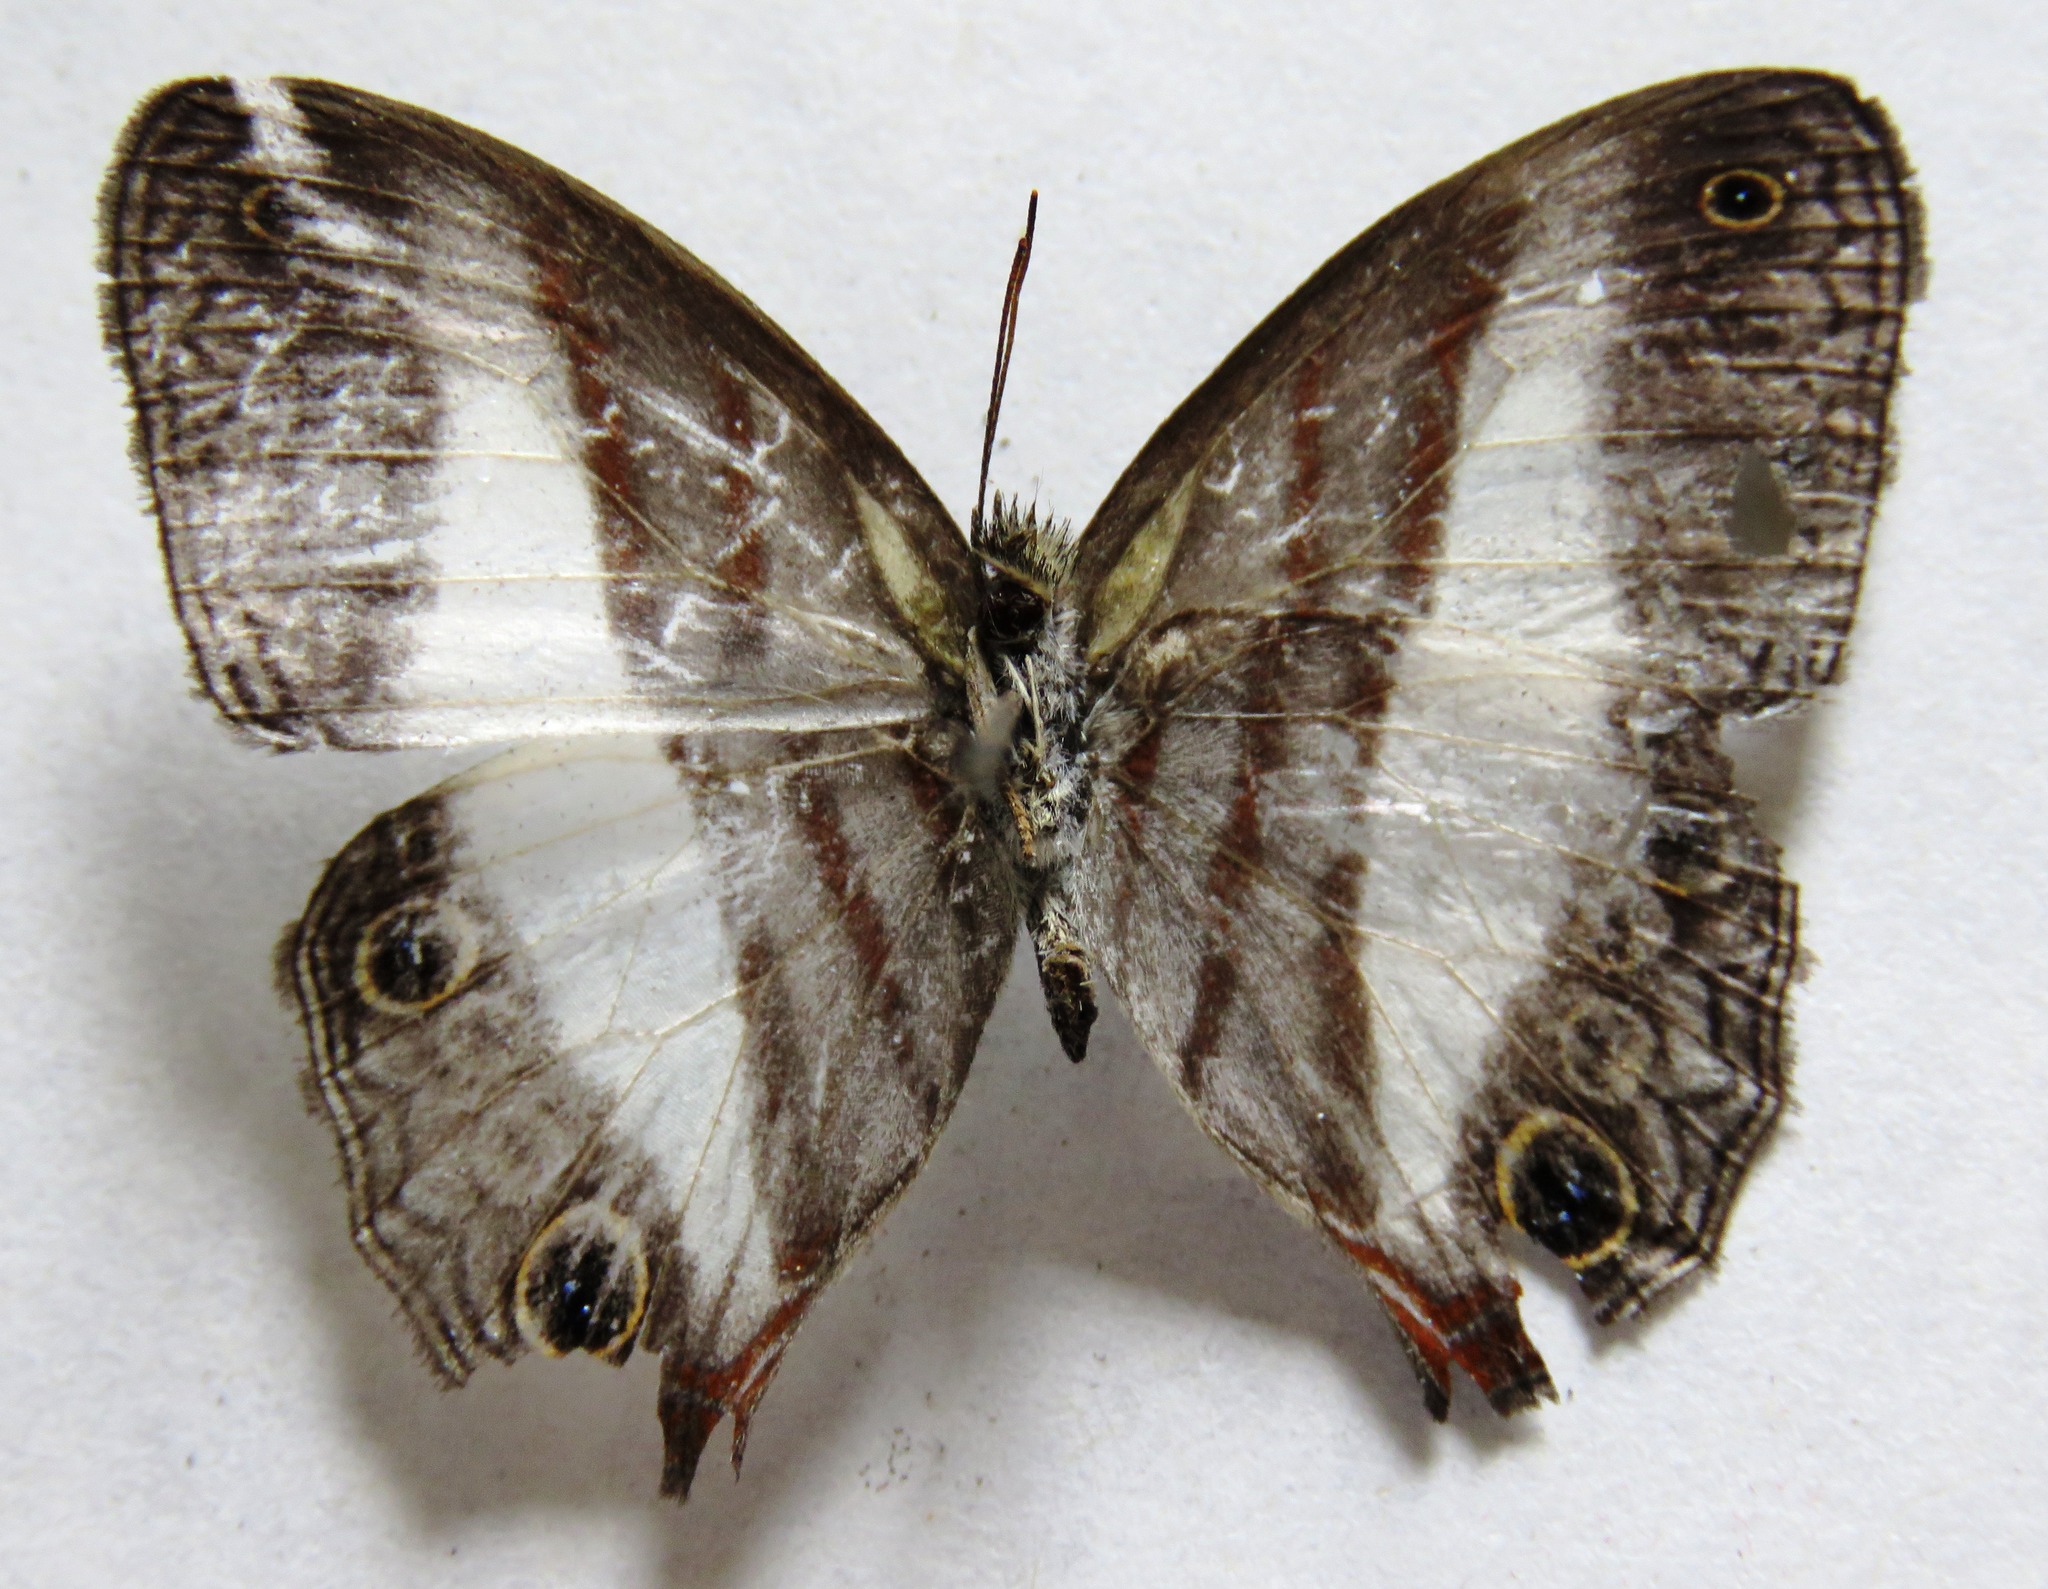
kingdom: Animalia
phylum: Arthropoda
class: Insecta
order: Lepidoptera
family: Nymphalidae
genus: Pareuptychia
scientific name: Pareuptychia metaleuca
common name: White-banded satyr
